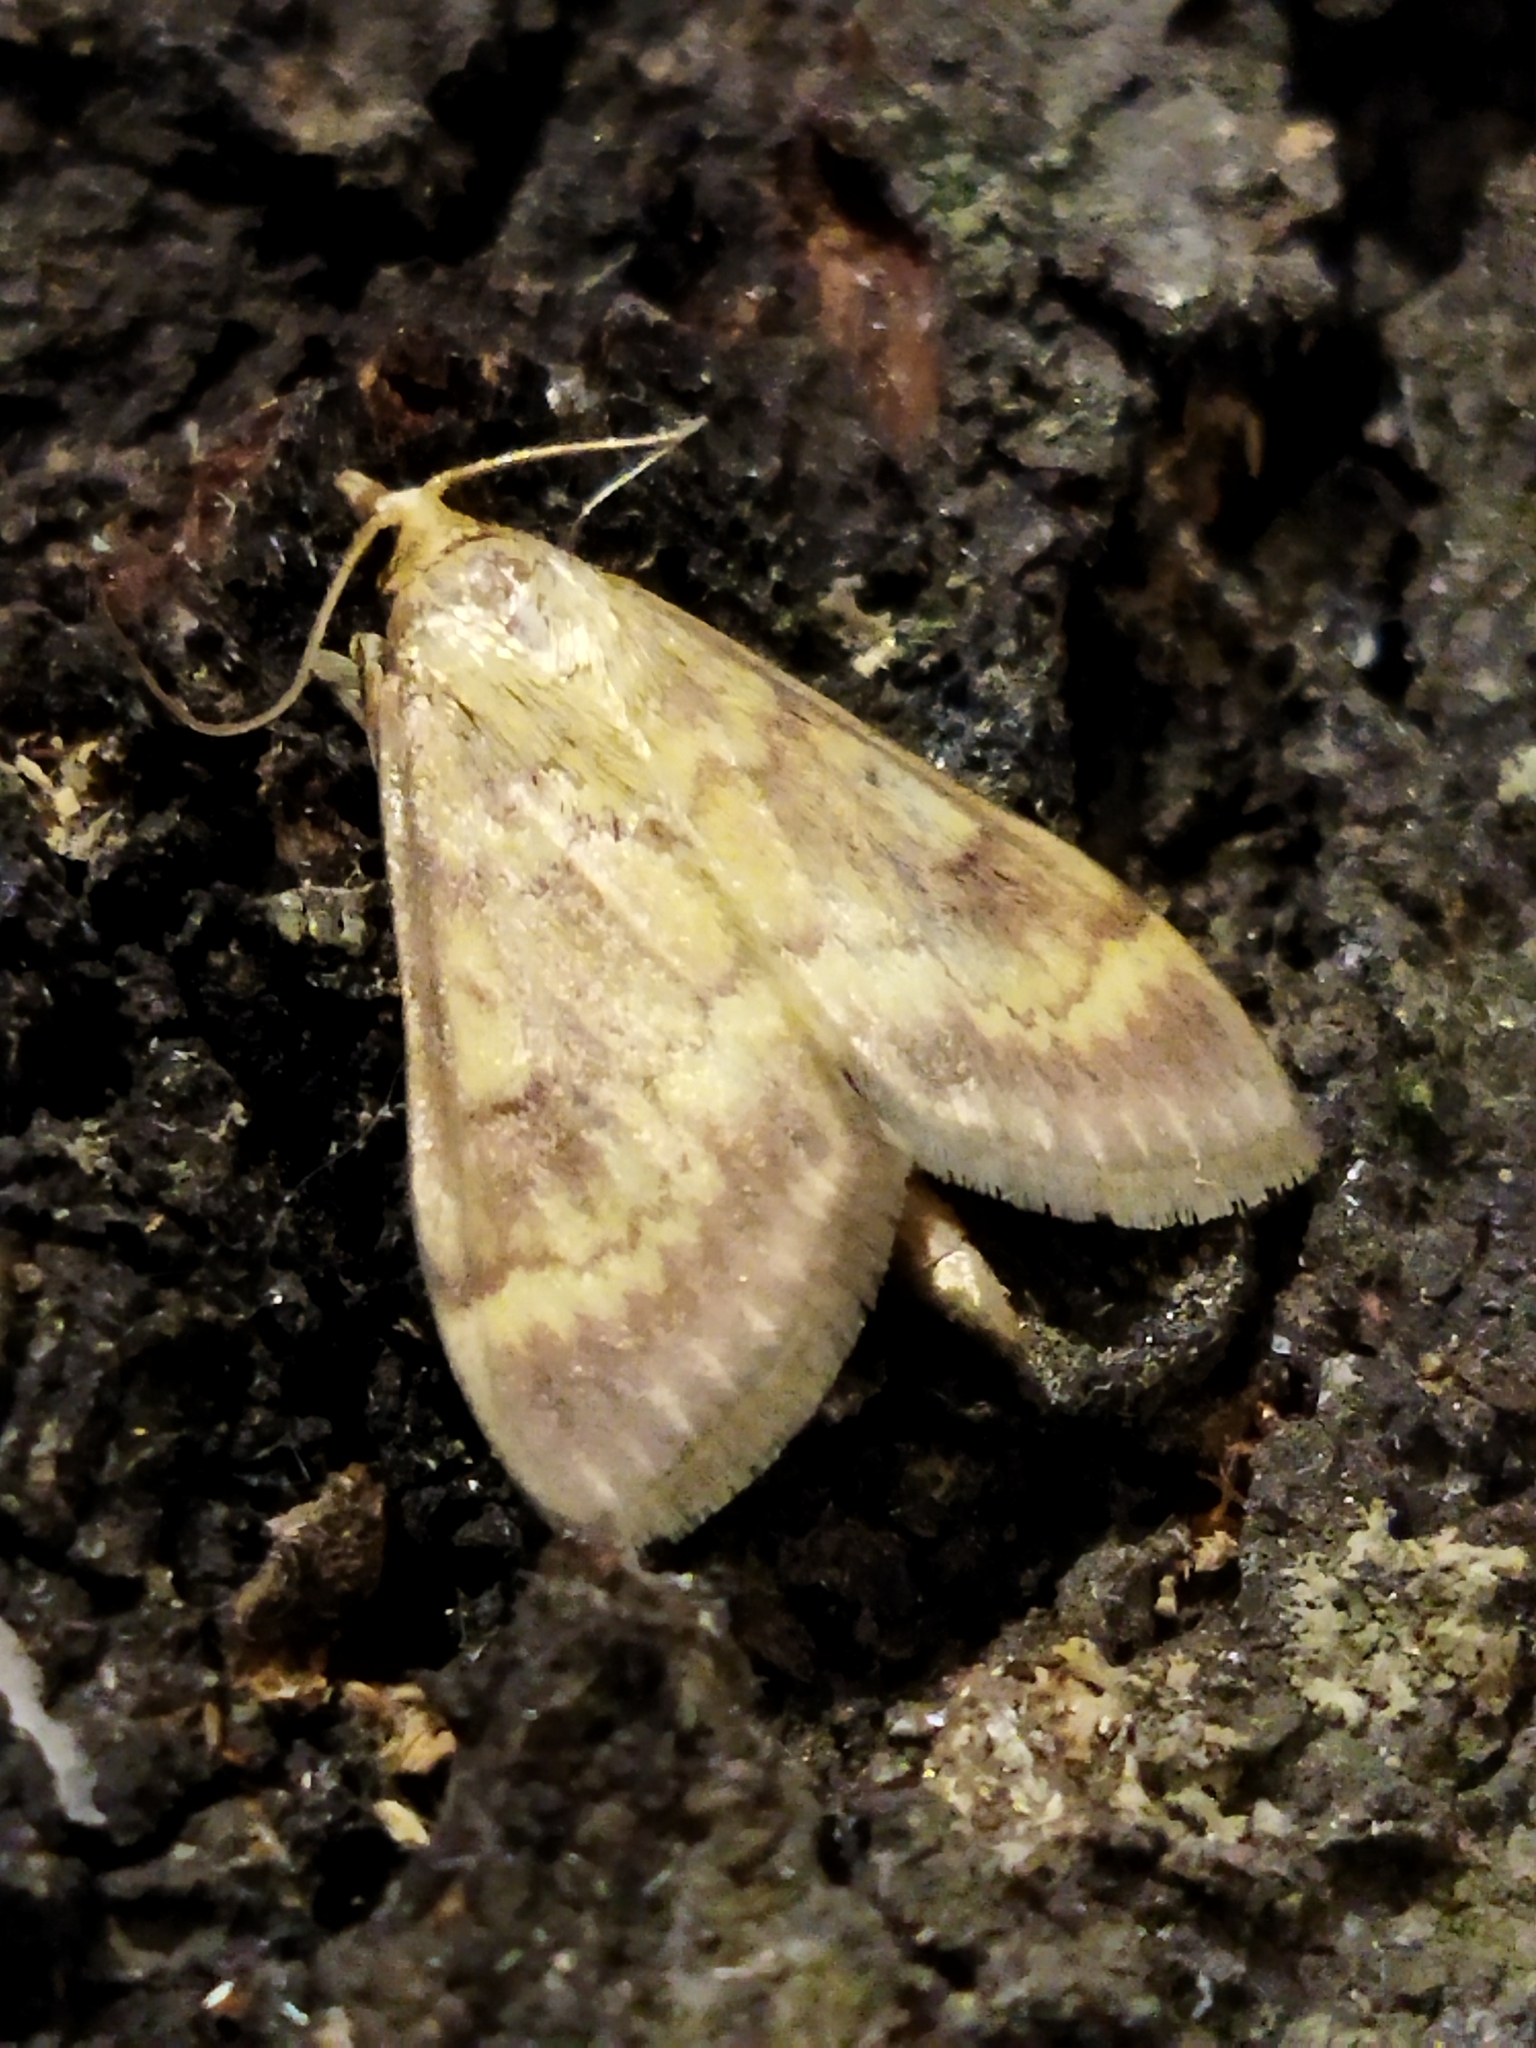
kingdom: Animalia
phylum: Arthropoda
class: Insecta
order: Lepidoptera
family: Crambidae
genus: Ostrinia
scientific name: Ostrinia nubilalis
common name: European corn borer
